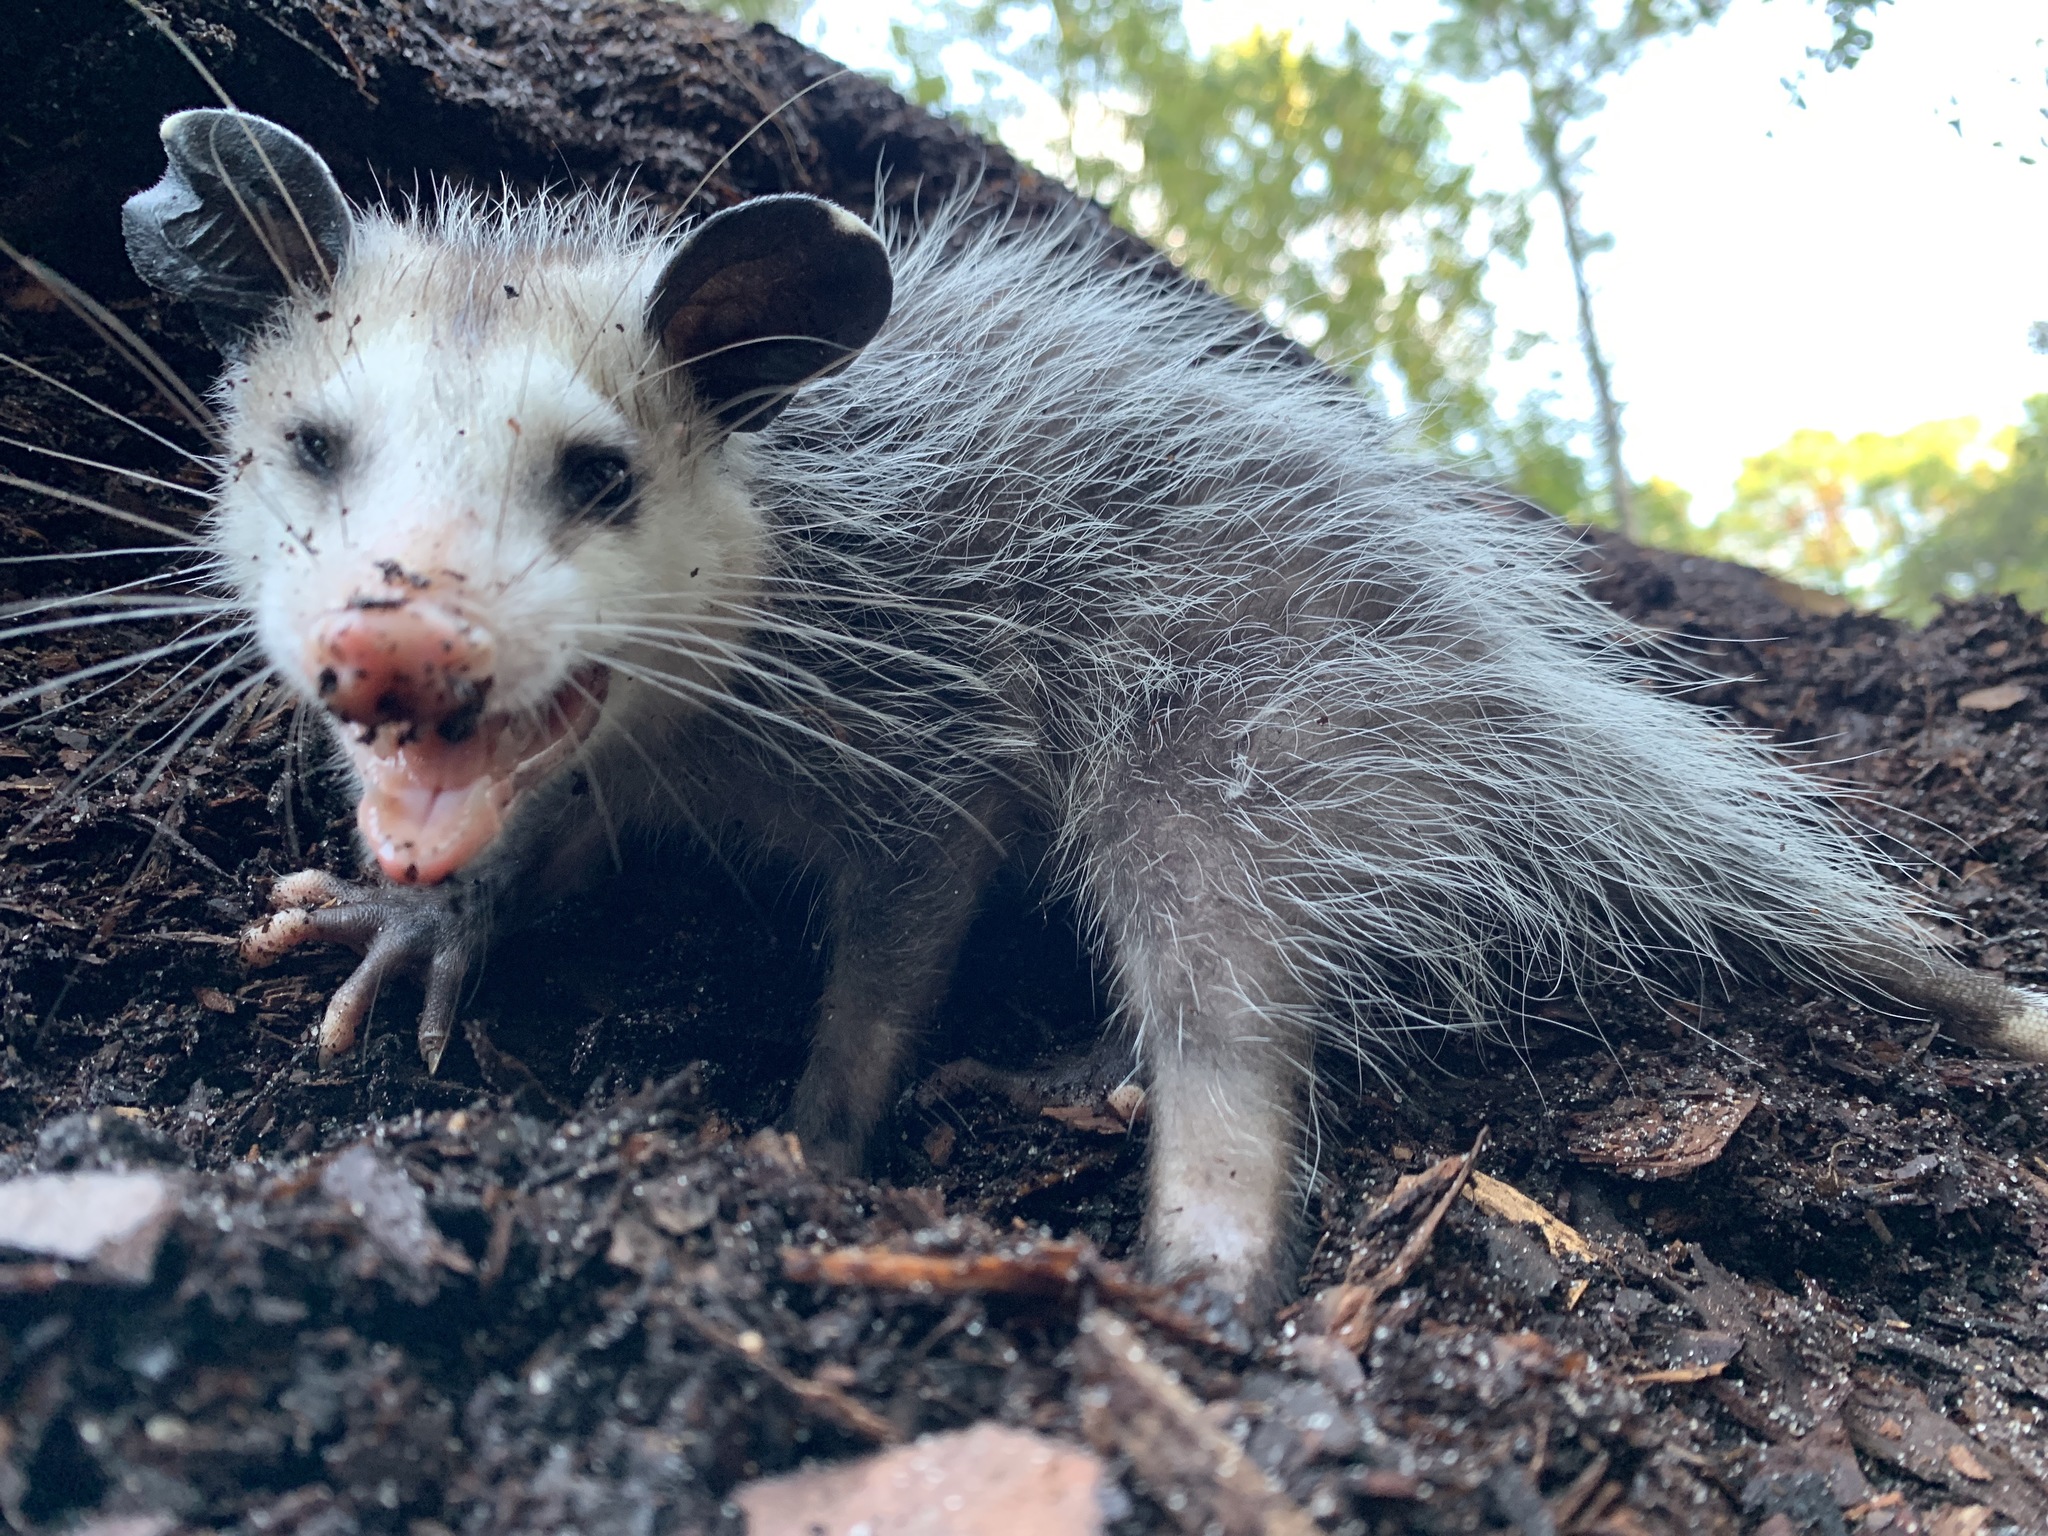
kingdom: Animalia
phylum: Chordata
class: Mammalia
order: Didelphimorphia
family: Didelphidae
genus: Didelphis
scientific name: Didelphis virginiana
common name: Virginia opossum
